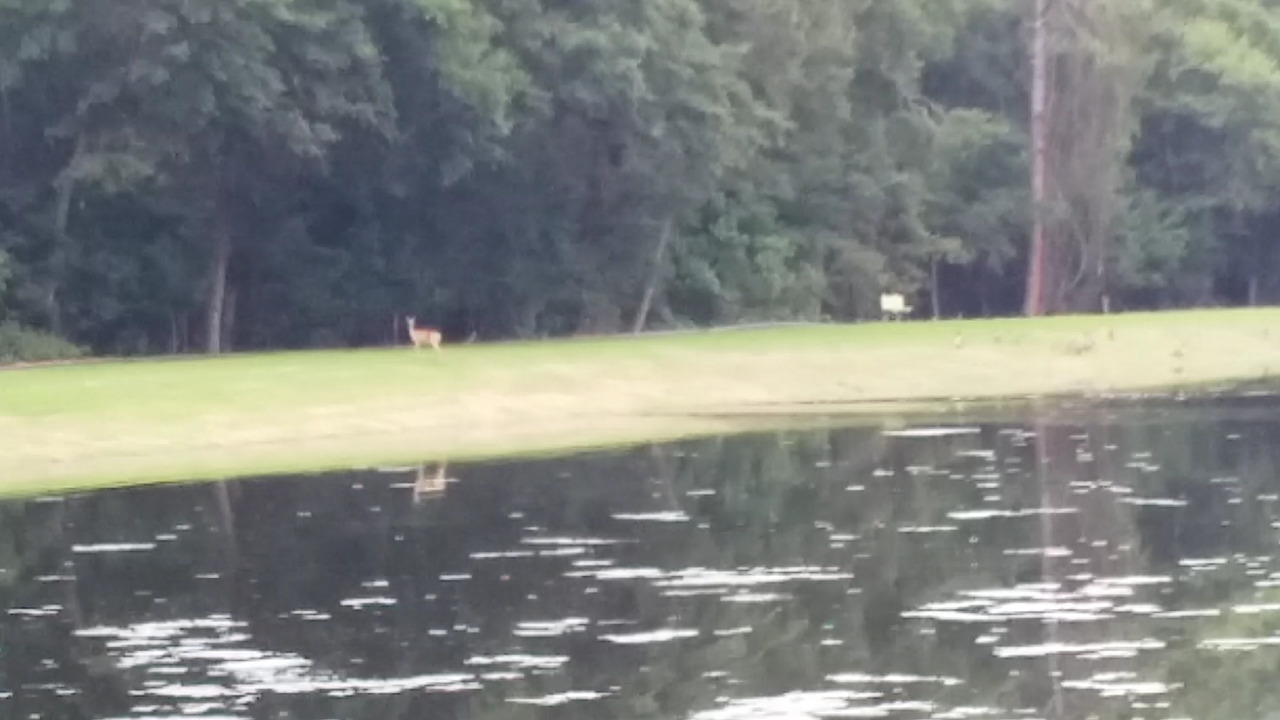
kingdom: Animalia
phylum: Chordata
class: Mammalia
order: Artiodactyla
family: Cervidae
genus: Odocoileus
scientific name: Odocoileus virginianus
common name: White-tailed deer
